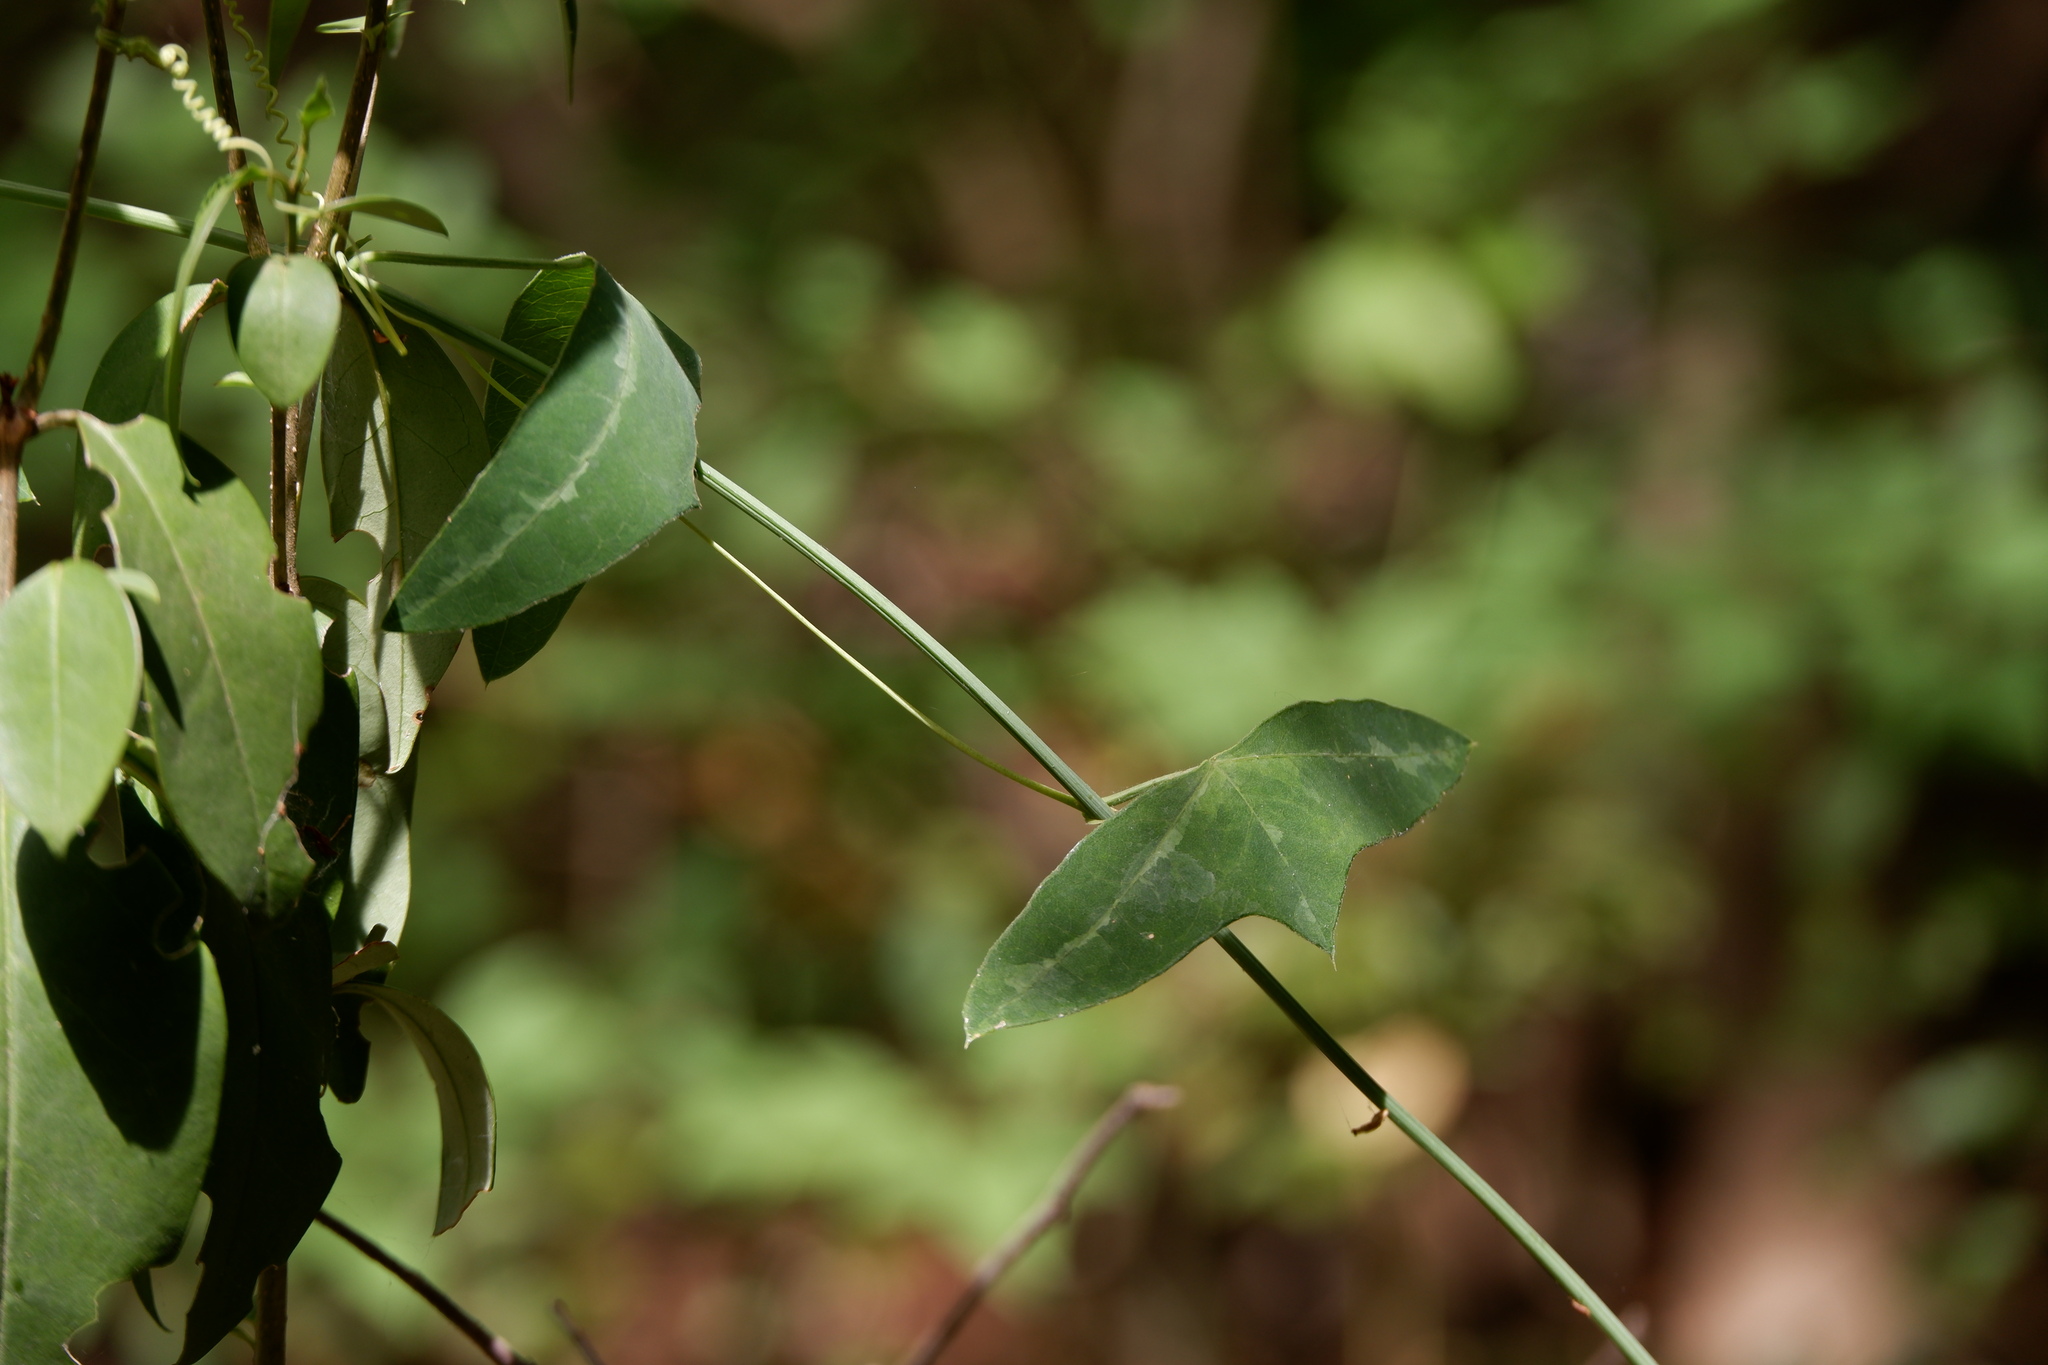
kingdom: Plantae
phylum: Tracheophyta
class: Magnoliopsida
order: Malpighiales
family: Passifloraceae
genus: Passiflora
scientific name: Passiflora lutea
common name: Yellow passionflower
